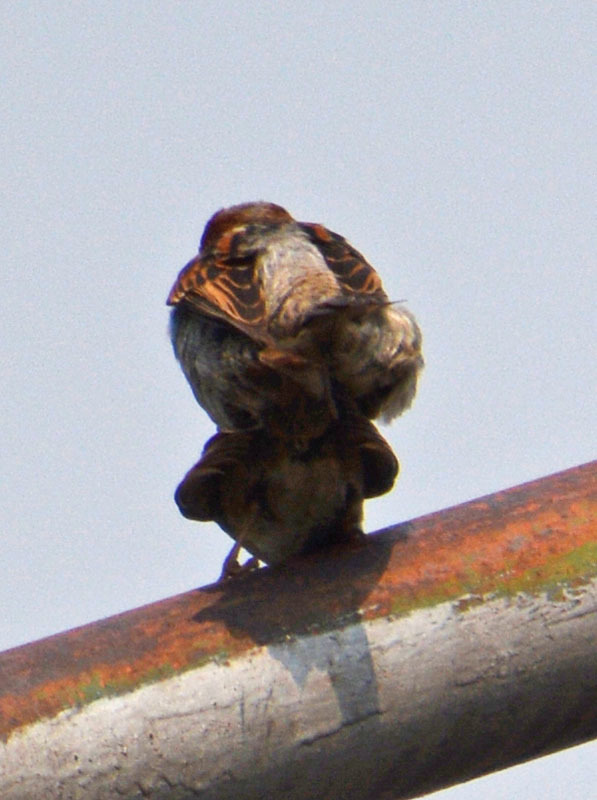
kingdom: Animalia
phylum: Chordata
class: Aves
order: Passeriformes
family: Passeridae
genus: Passer
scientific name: Passer domesticus
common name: House sparrow
